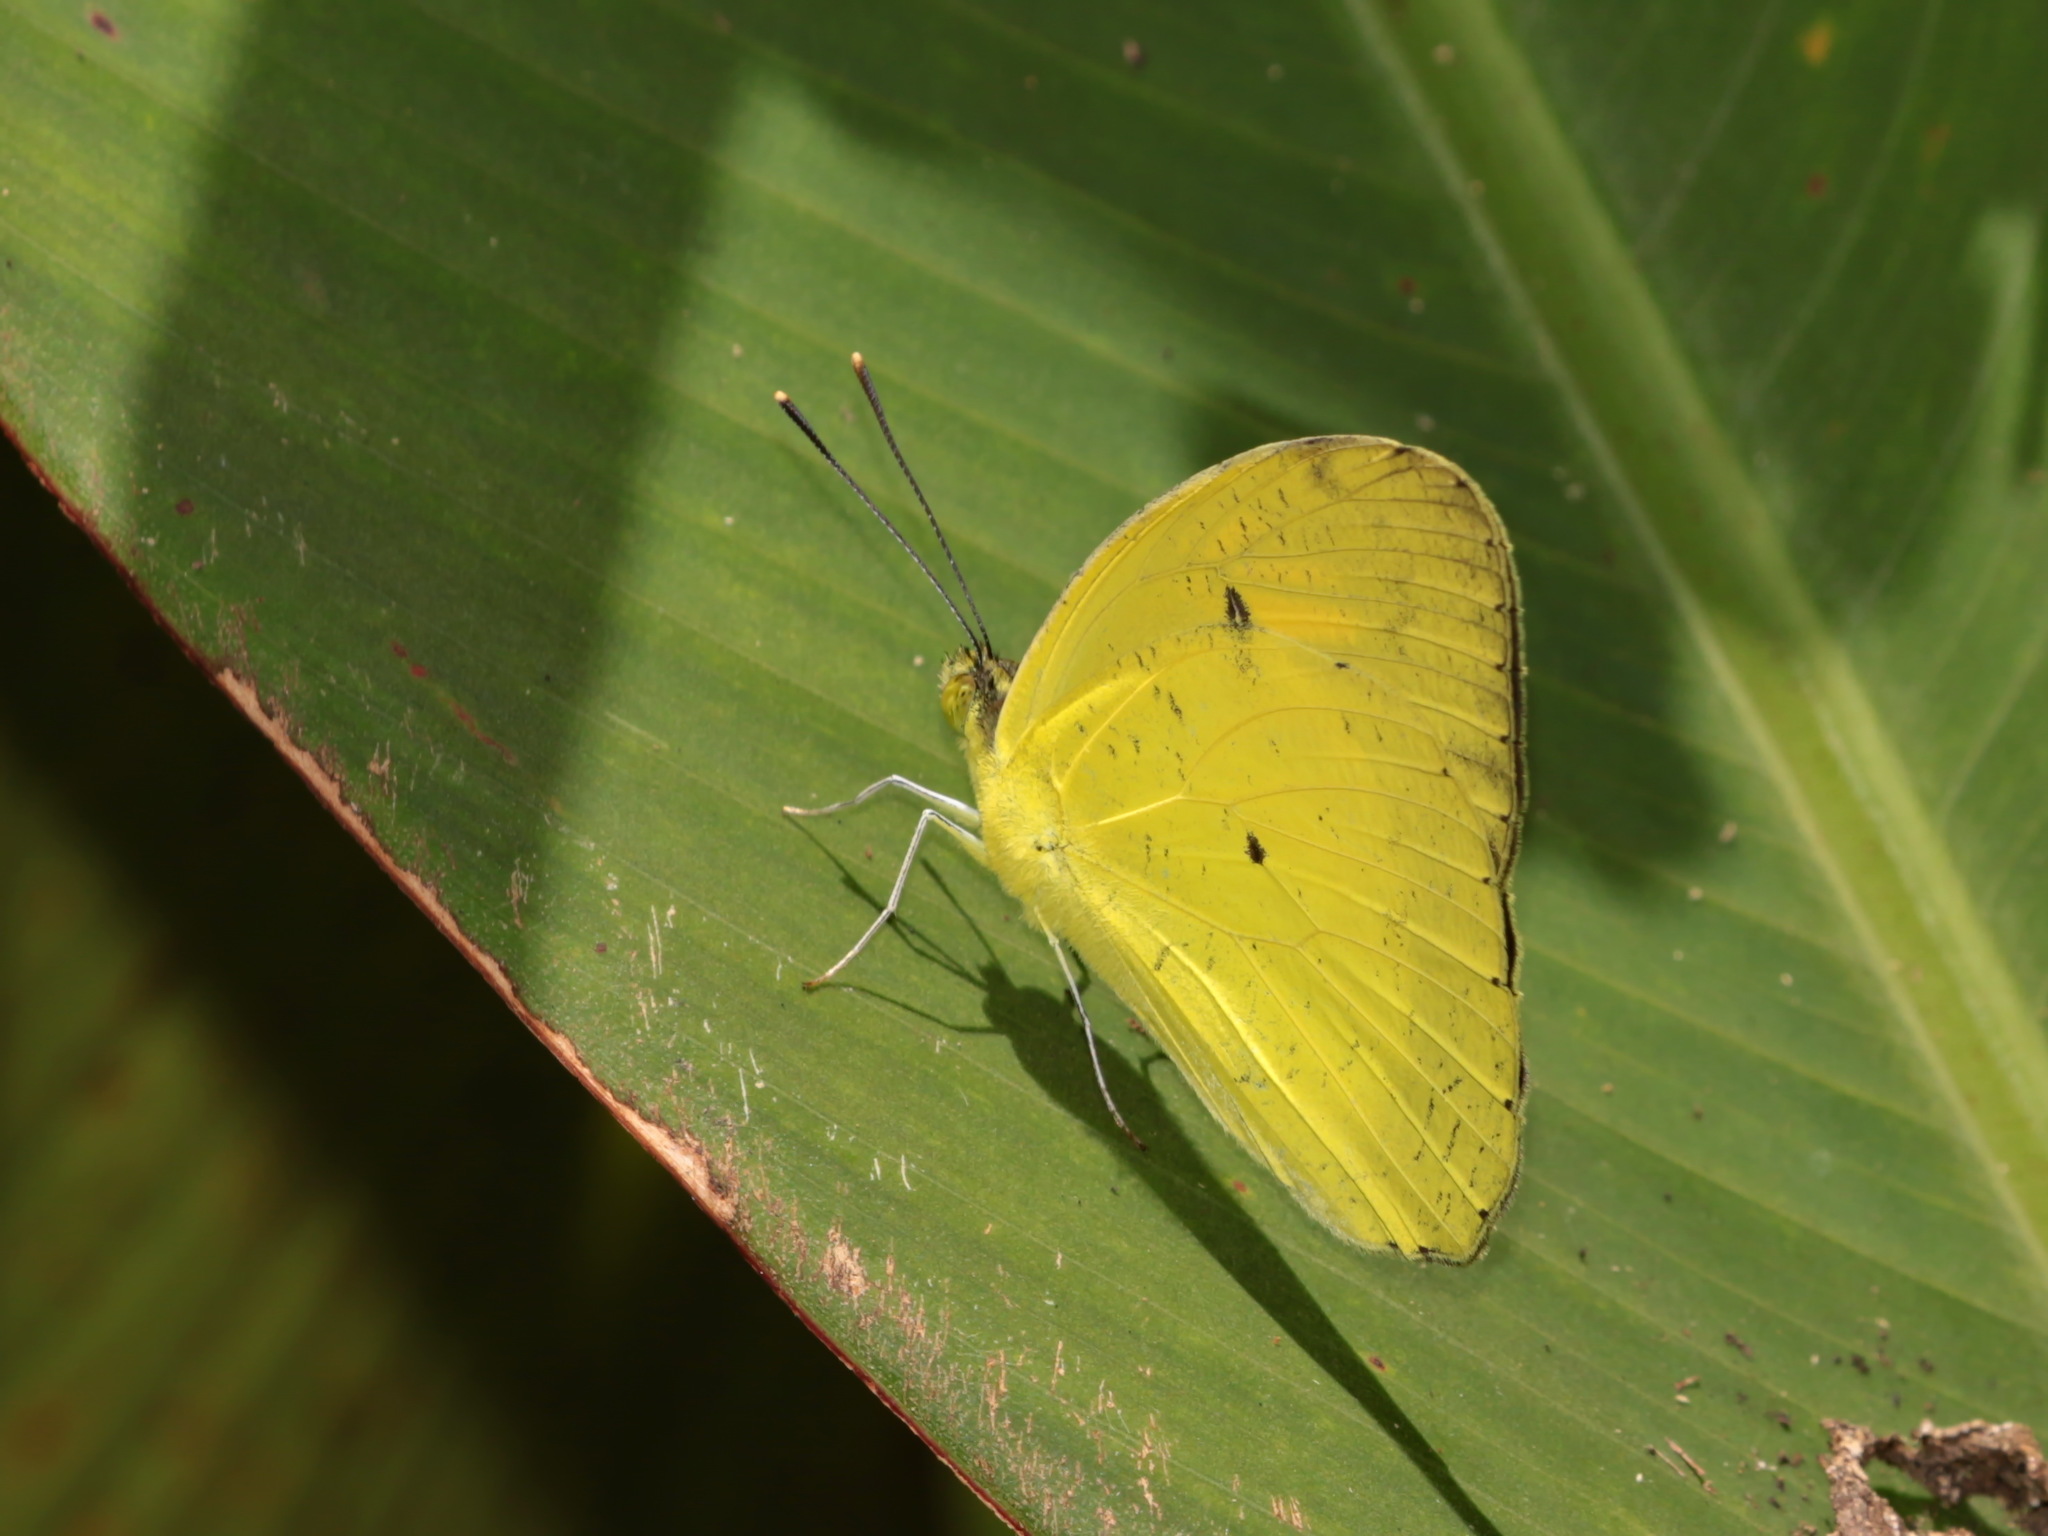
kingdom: Animalia
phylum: Arthropoda
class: Insecta
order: Lepidoptera
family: Pieridae
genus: Ixias
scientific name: Ixias pyrene
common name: Yellow orange tip
